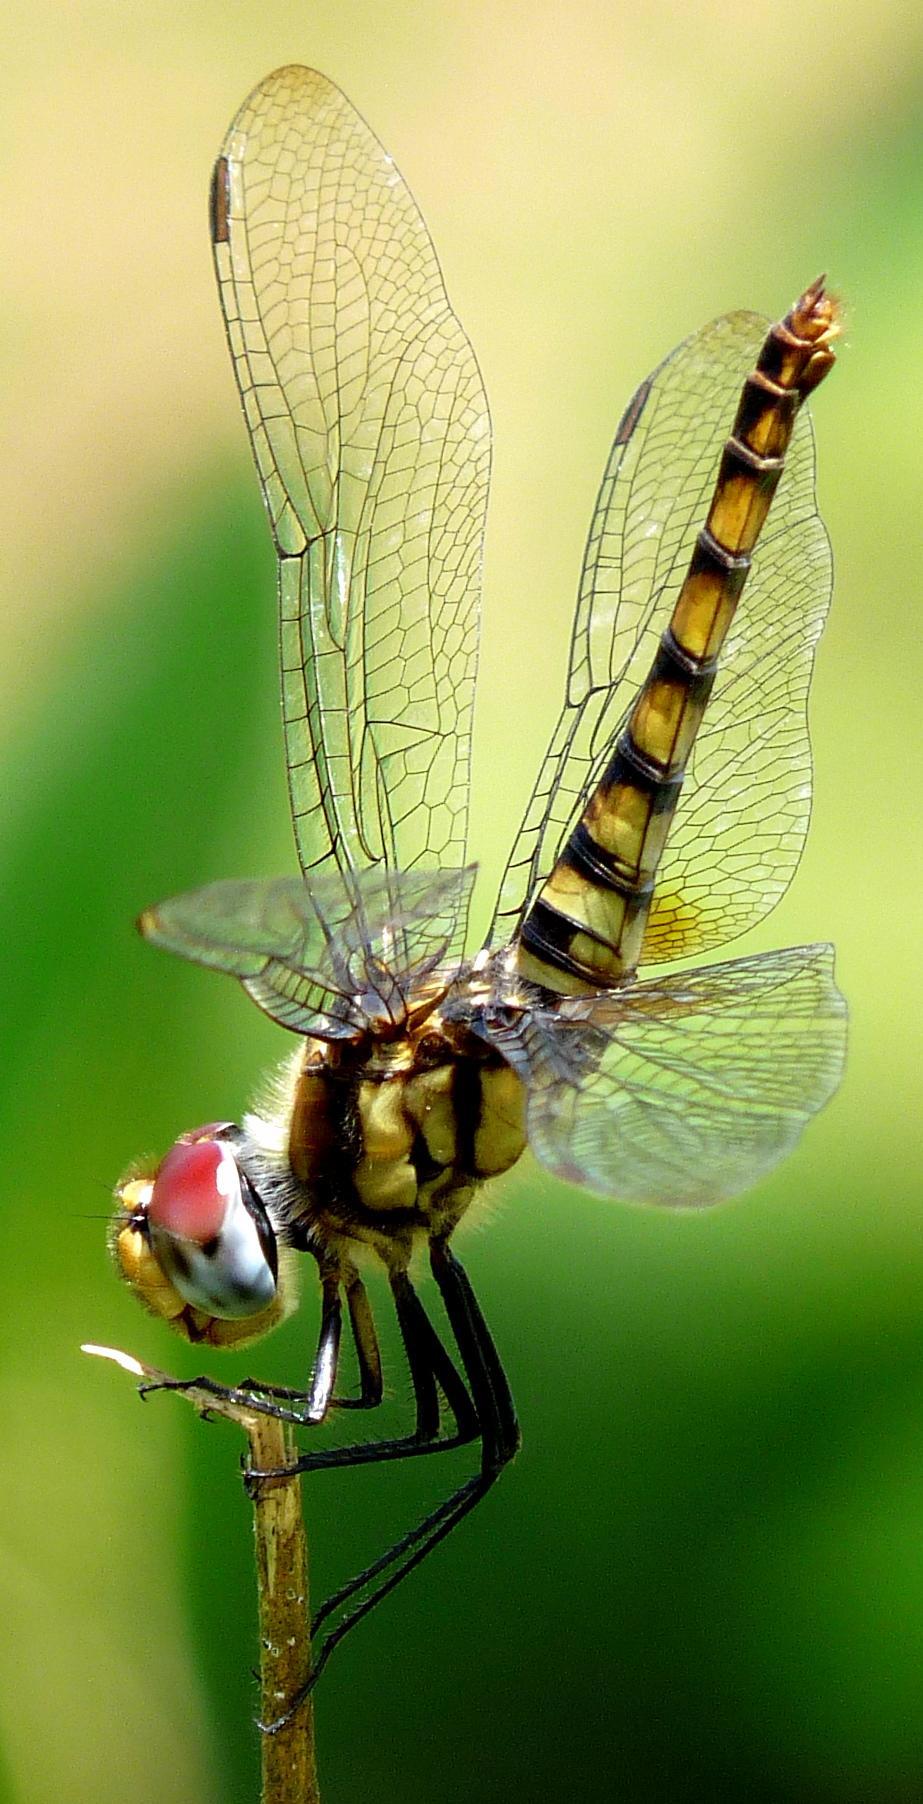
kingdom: Animalia
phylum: Arthropoda
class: Insecta
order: Odonata
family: Libellulidae
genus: Urothemis
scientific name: Urothemis signata
